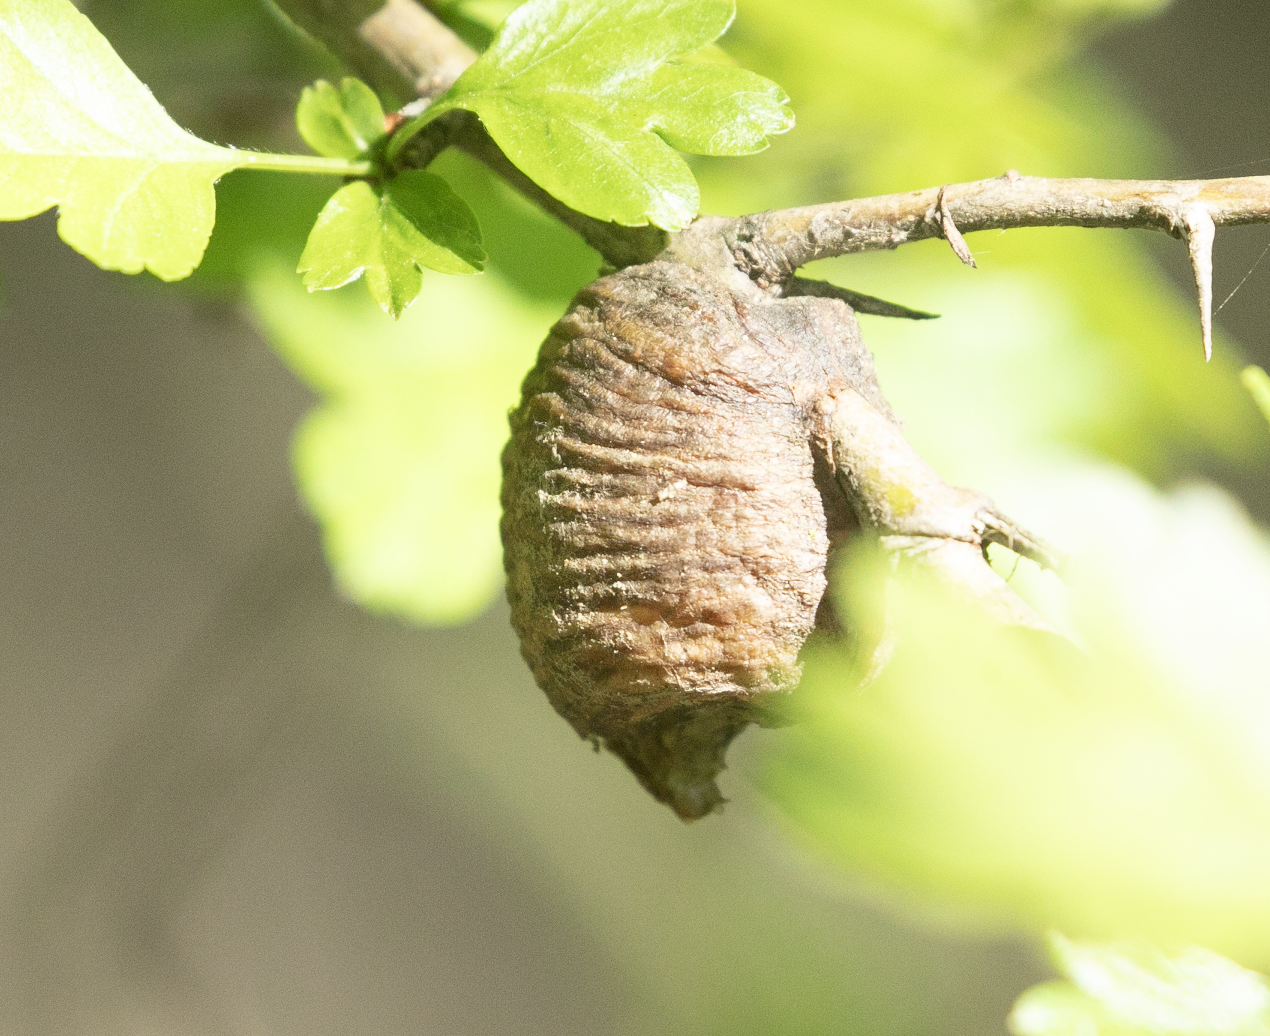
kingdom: Animalia
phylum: Arthropoda
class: Insecta
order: Mantodea
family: Mantidae
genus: Hierodula
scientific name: Hierodula transcaucasica
